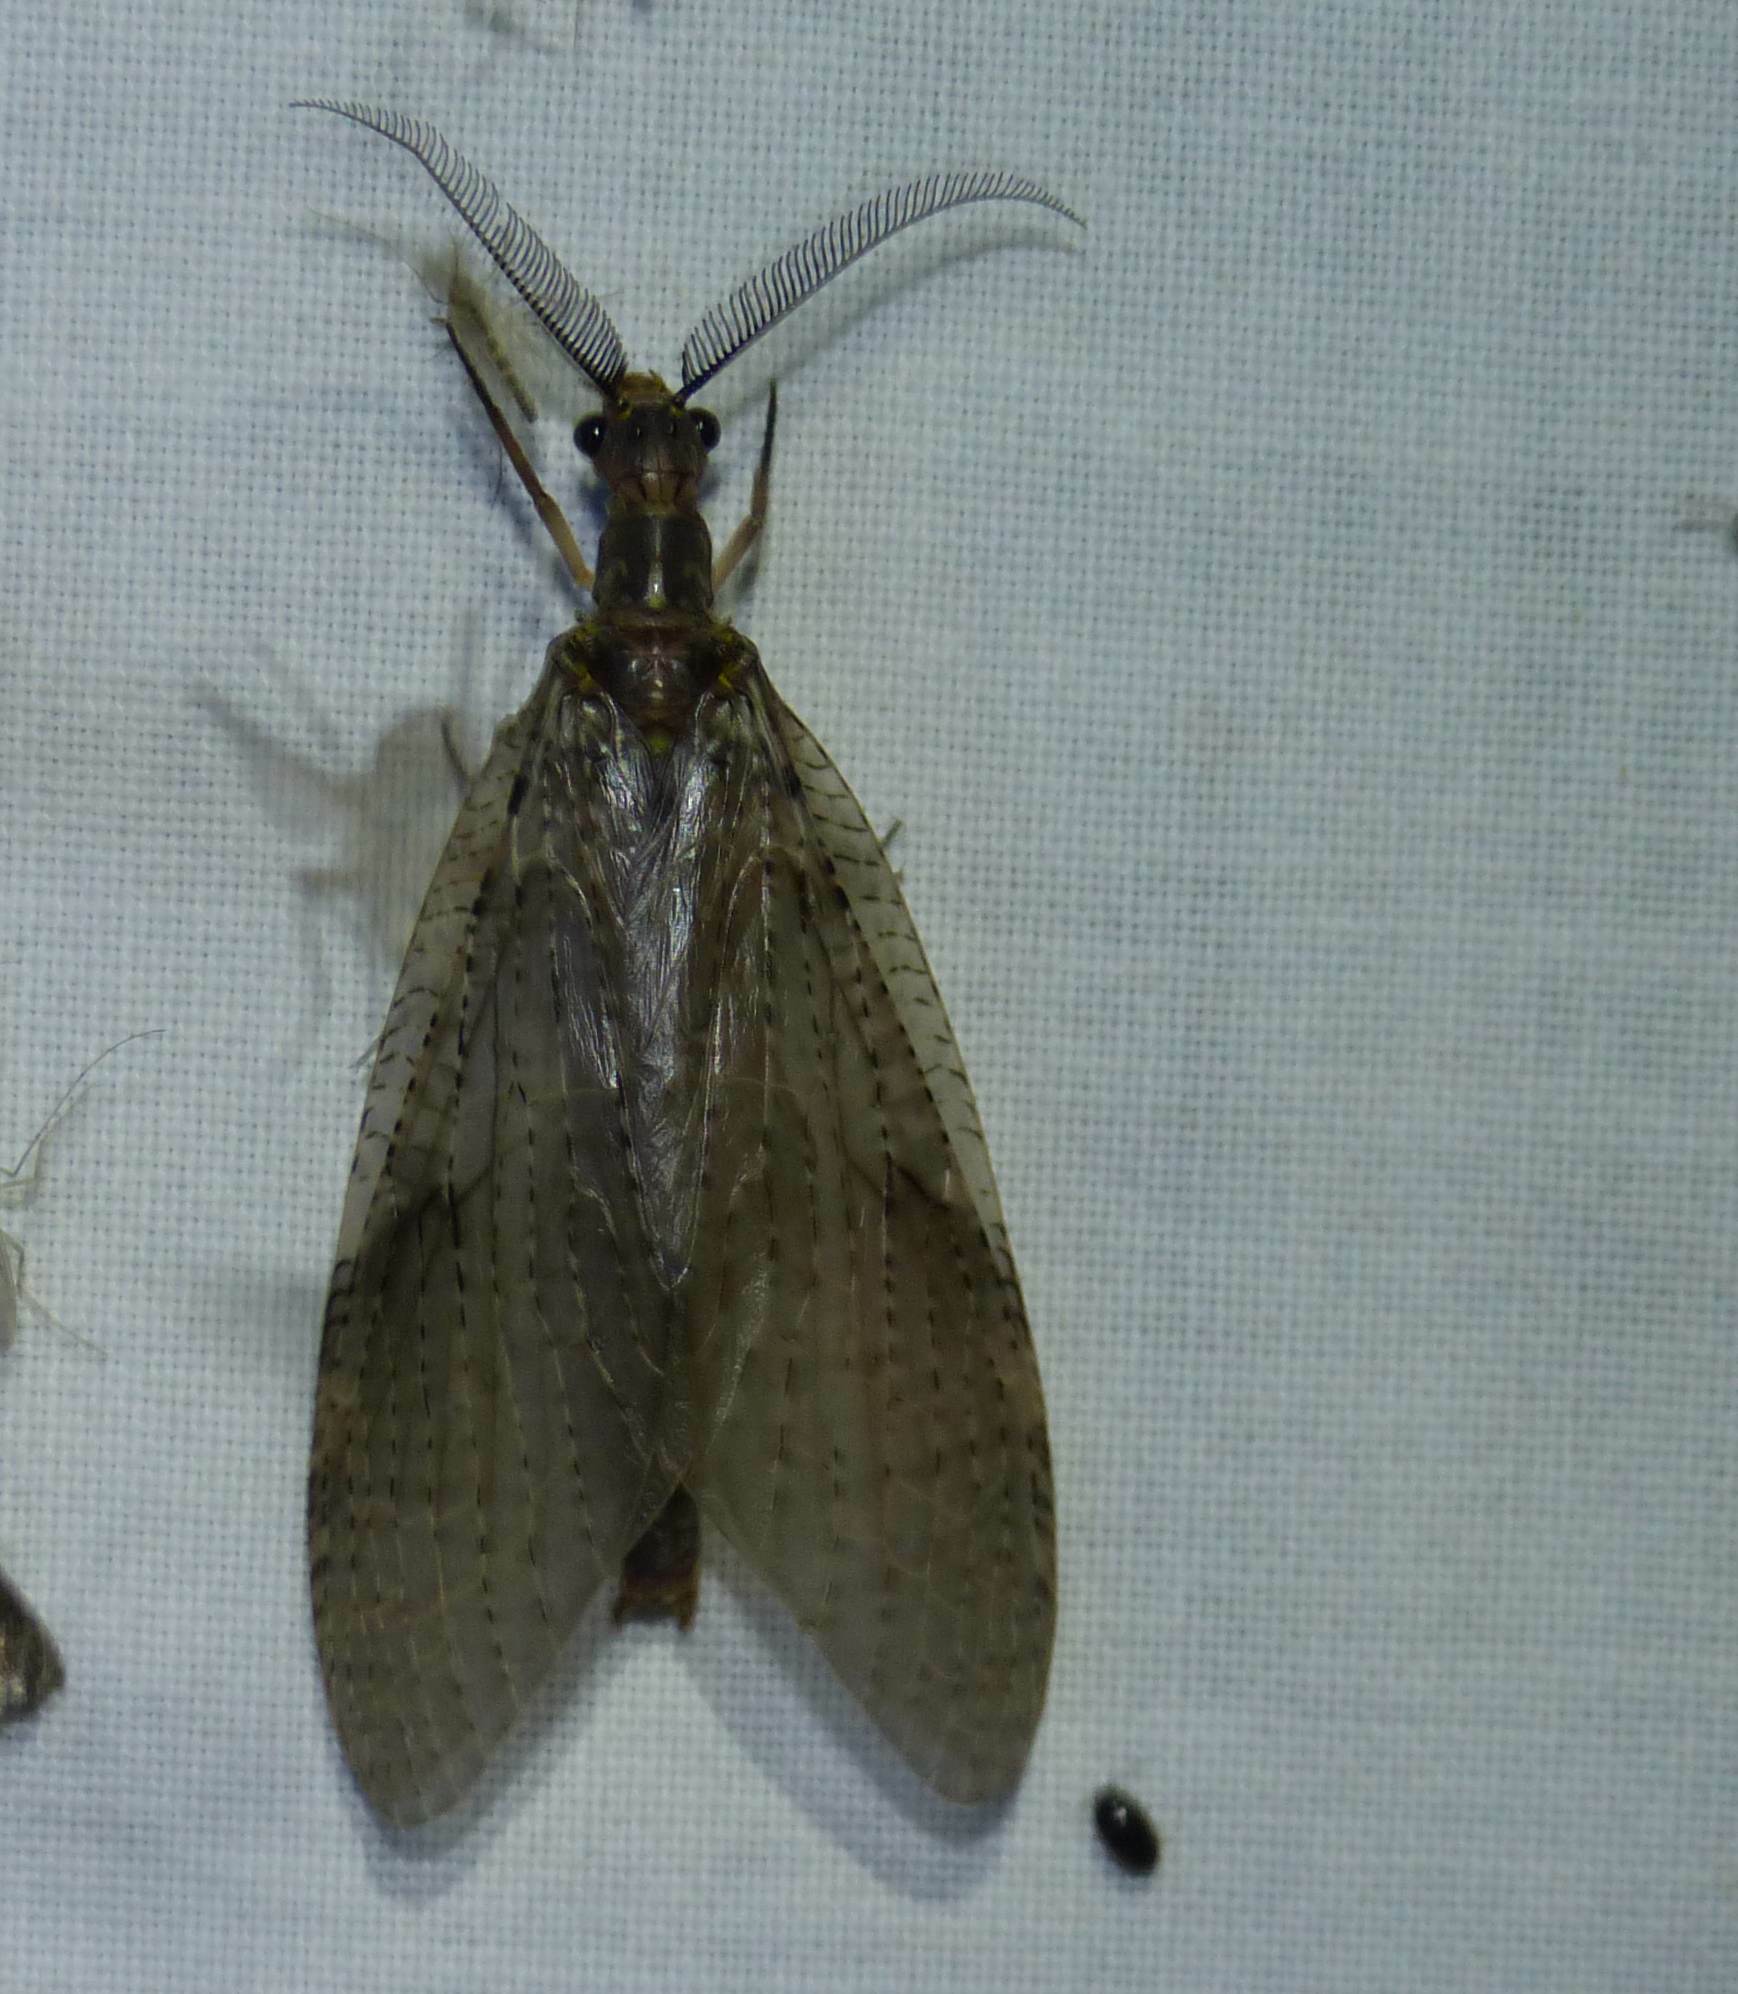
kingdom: Animalia
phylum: Arthropoda
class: Insecta
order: Megaloptera
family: Corydalidae
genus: Chauliodes
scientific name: Chauliodes pectinicornis
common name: Summer fishfly
